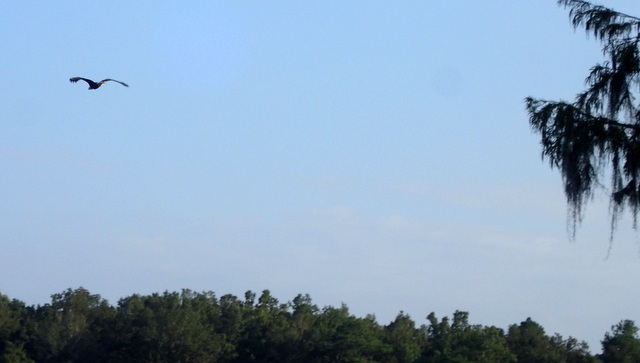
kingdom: Animalia
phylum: Chordata
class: Aves
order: Accipitriformes
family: Accipitridae
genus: Haliaeetus
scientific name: Haliaeetus leucocephalus
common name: Bald eagle
